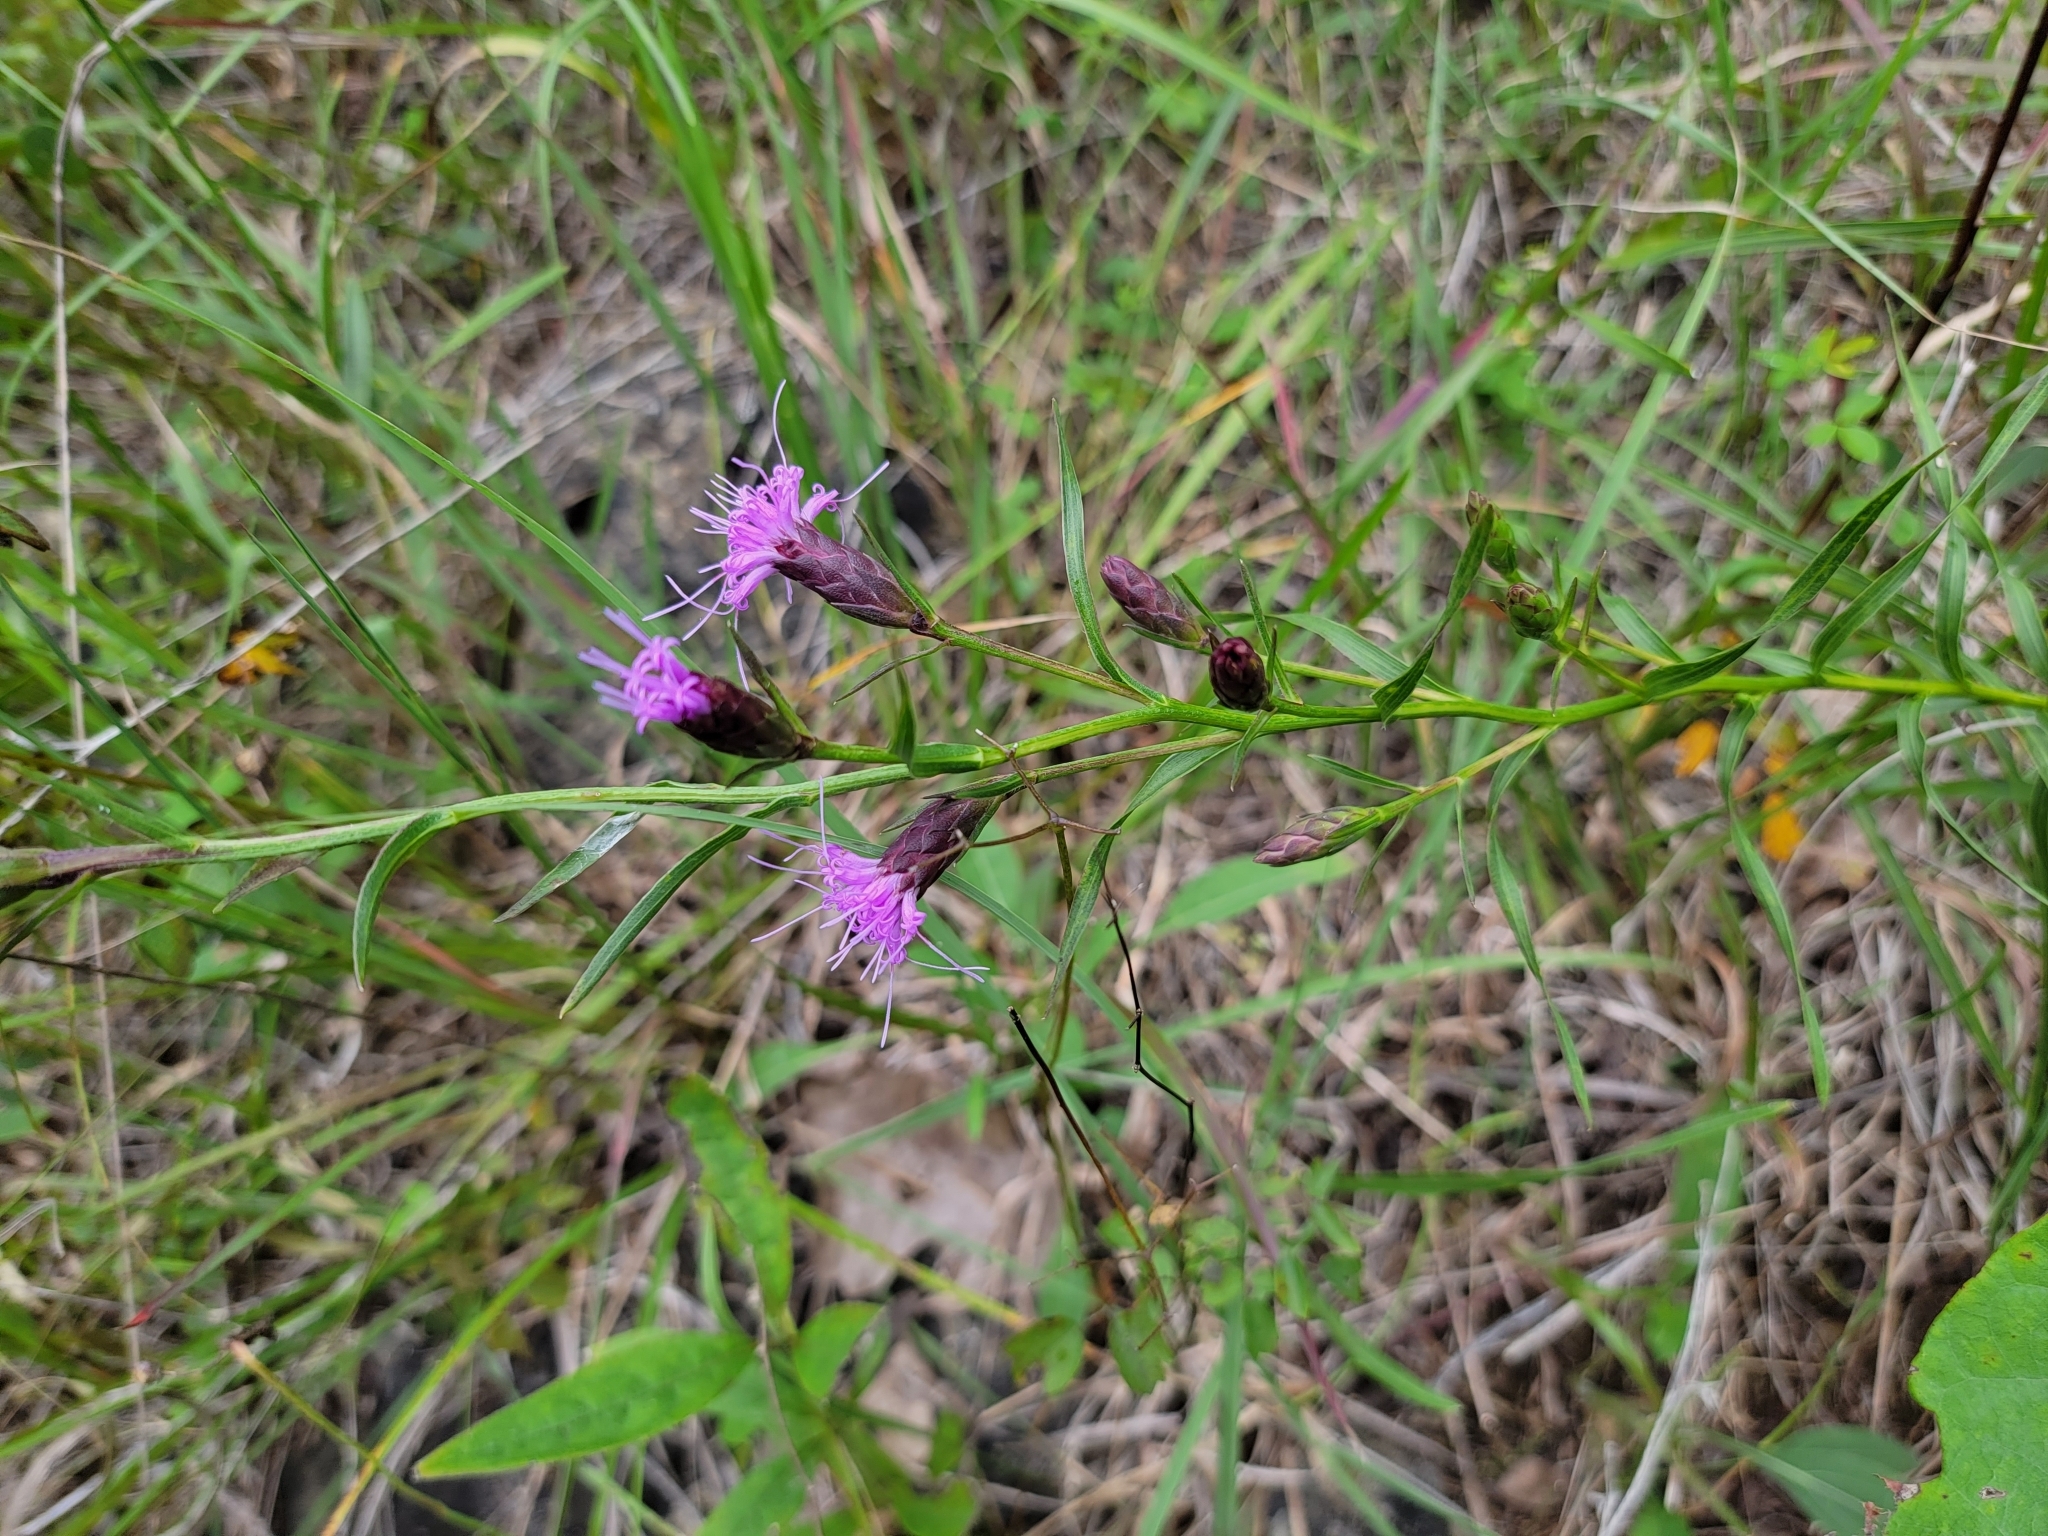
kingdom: Plantae
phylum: Tracheophyta
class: Magnoliopsida
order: Asterales
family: Asteraceae
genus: Liatris
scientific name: Liatris cylindracea
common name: Few-head blazingstar
